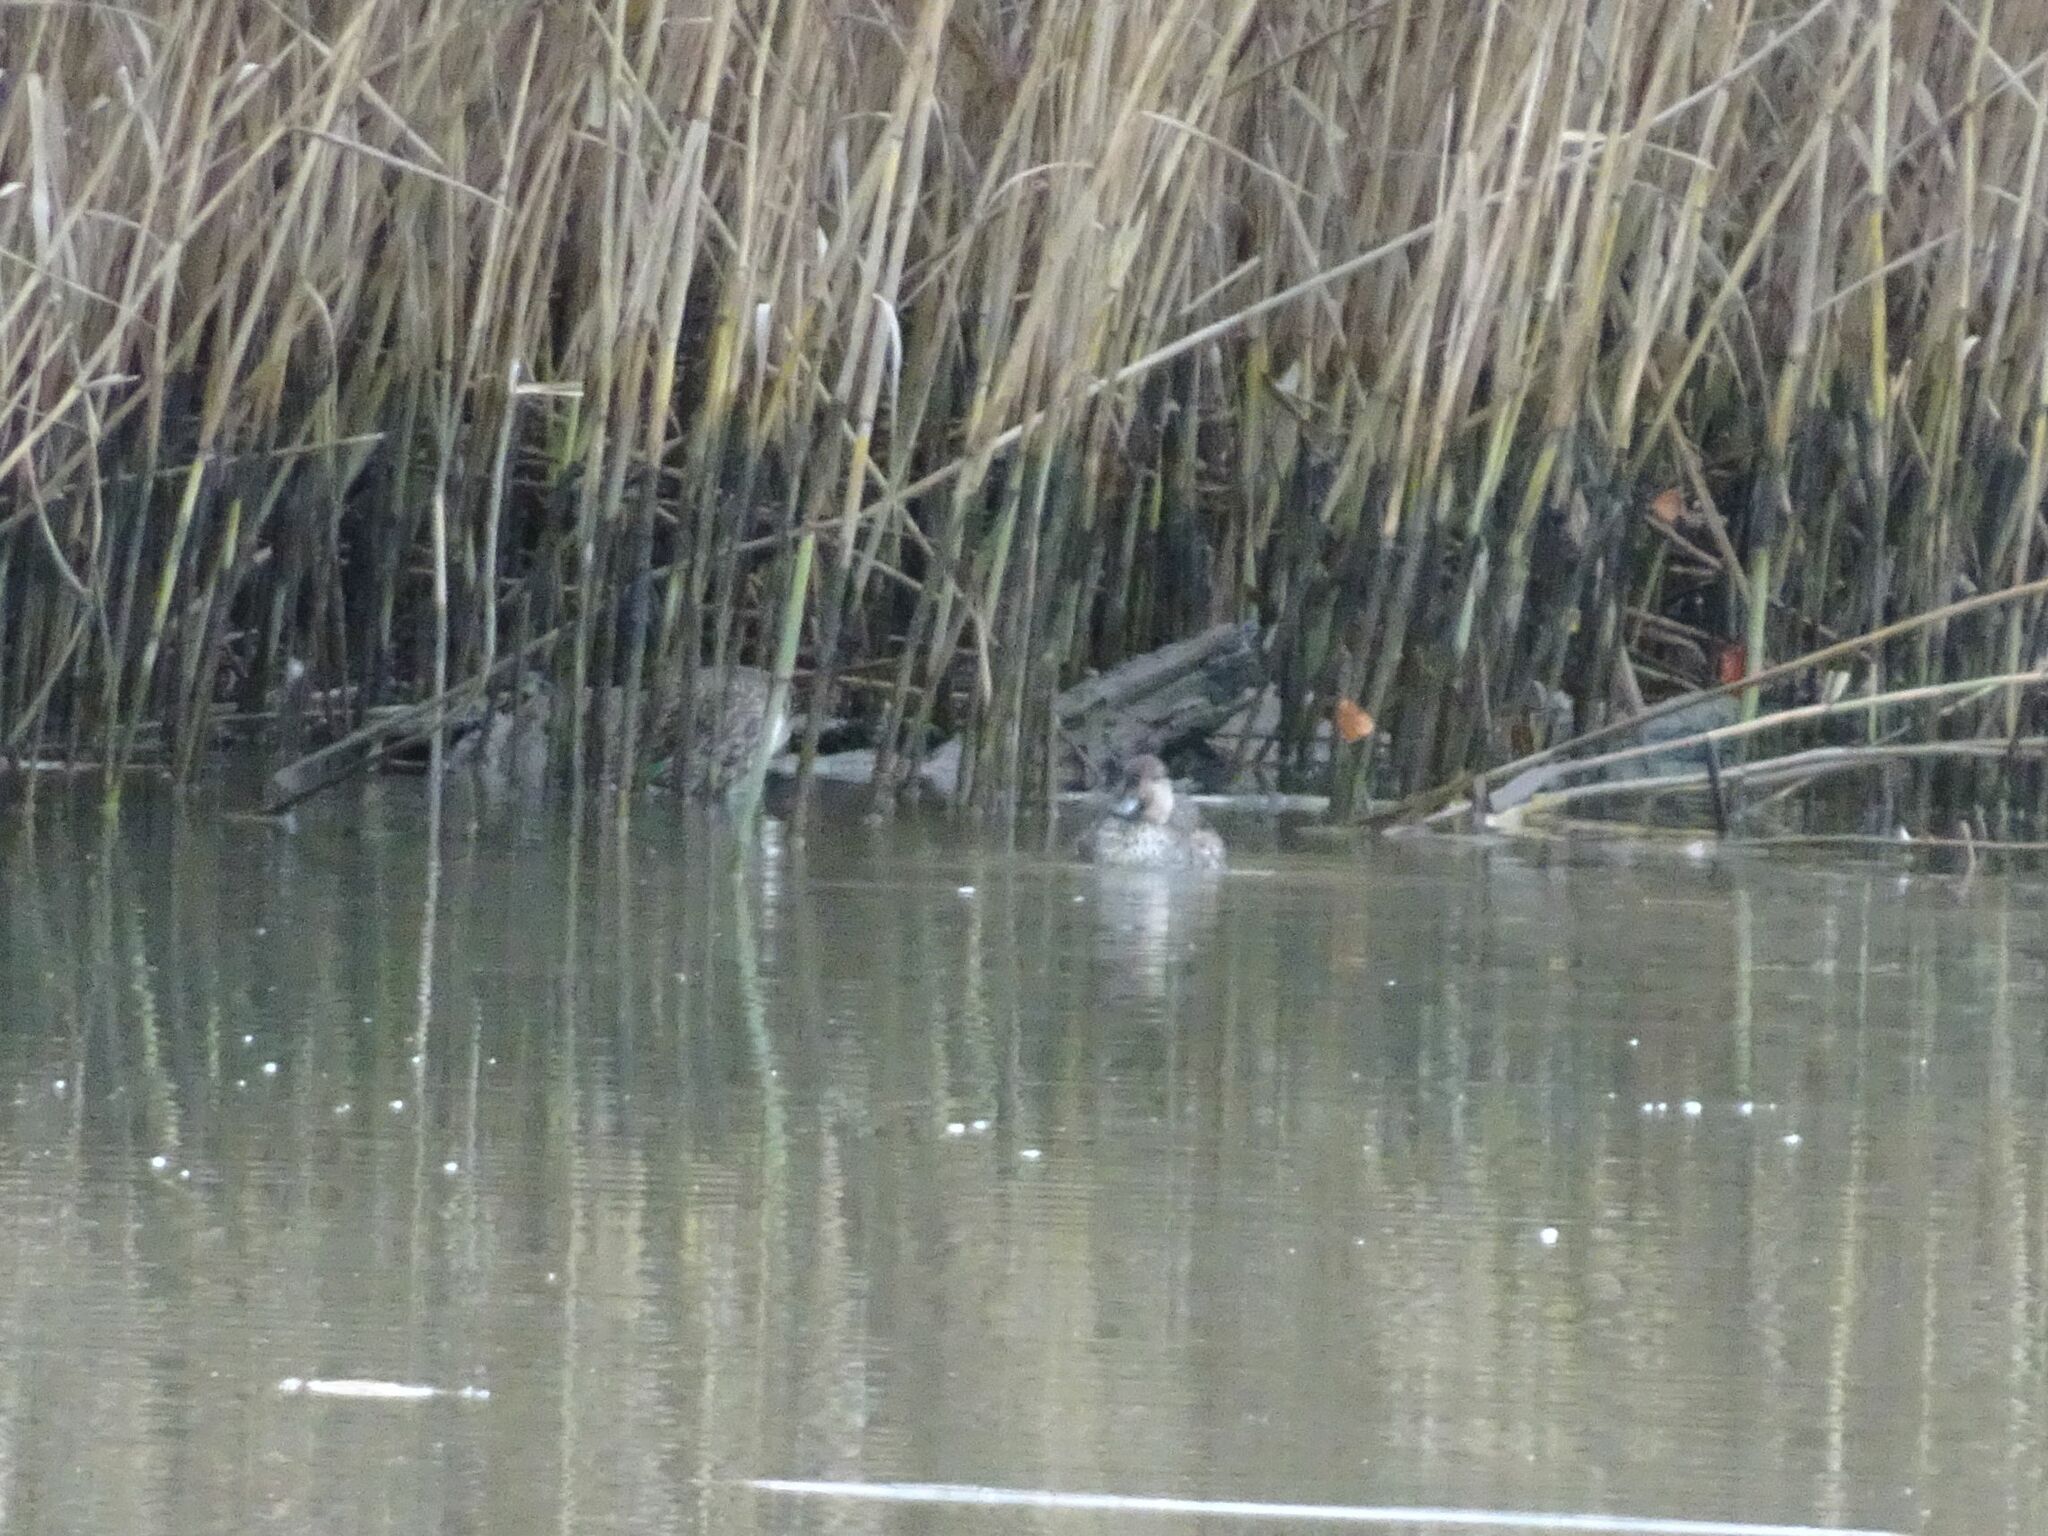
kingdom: Animalia
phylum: Chordata
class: Aves
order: Anseriformes
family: Anatidae
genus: Anas
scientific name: Anas crecca
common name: Eurasian teal
